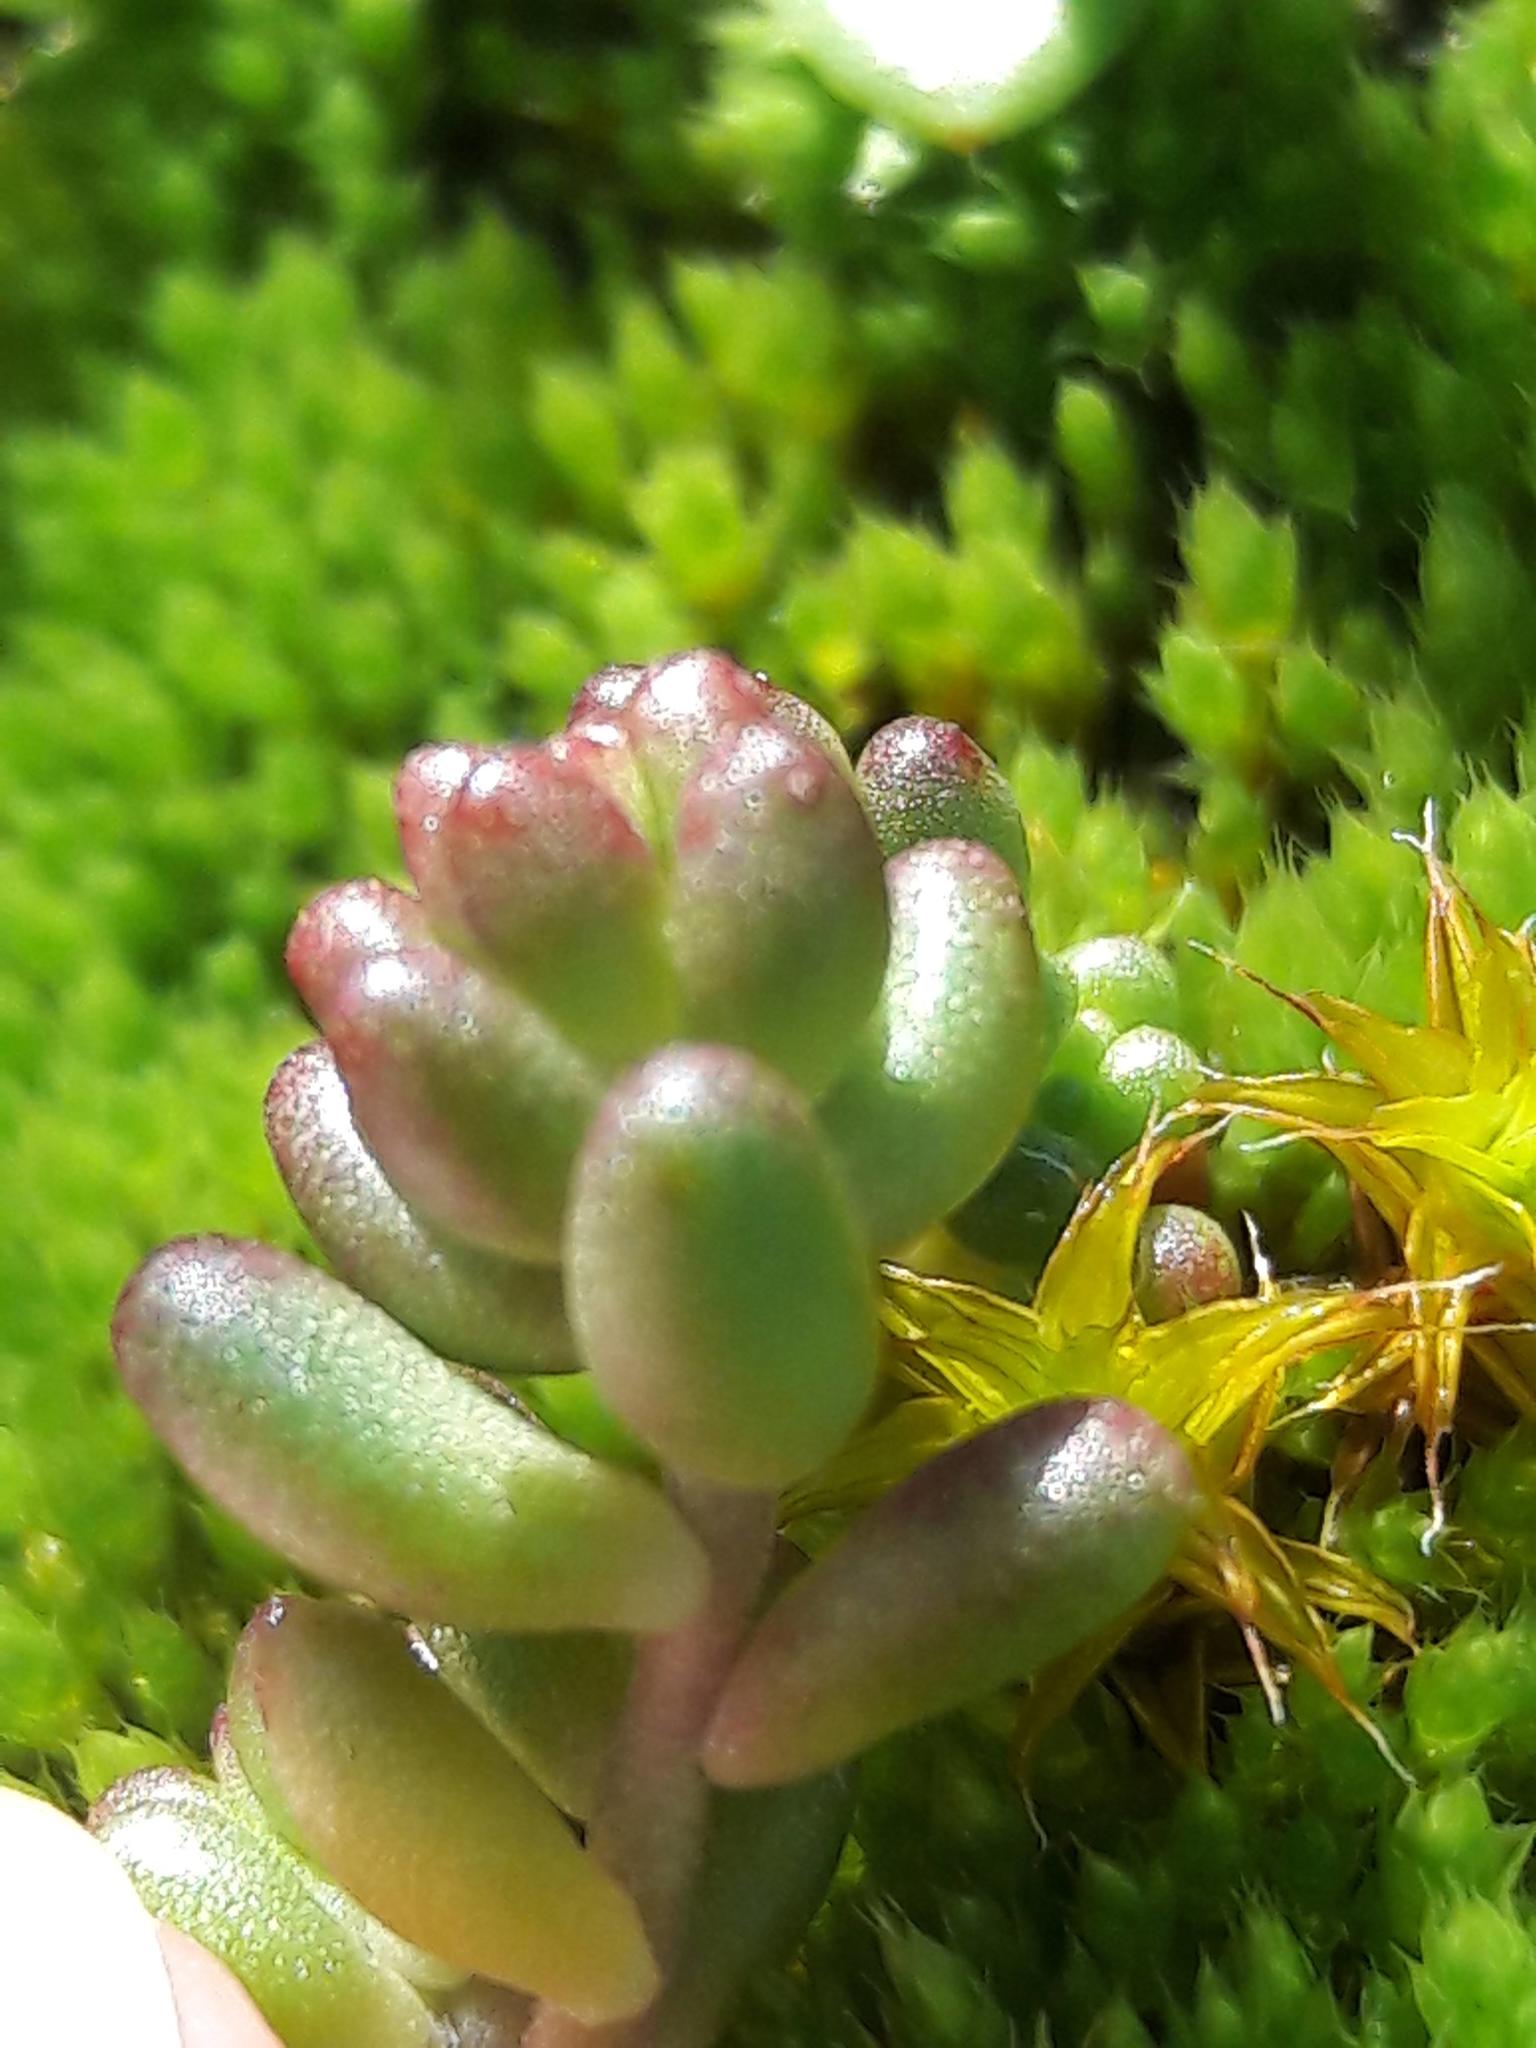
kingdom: Plantae
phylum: Tracheophyta
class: Magnoliopsida
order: Saxifragales
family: Crassulaceae
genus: Sedum
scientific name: Sedum album
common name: White stonecrop
